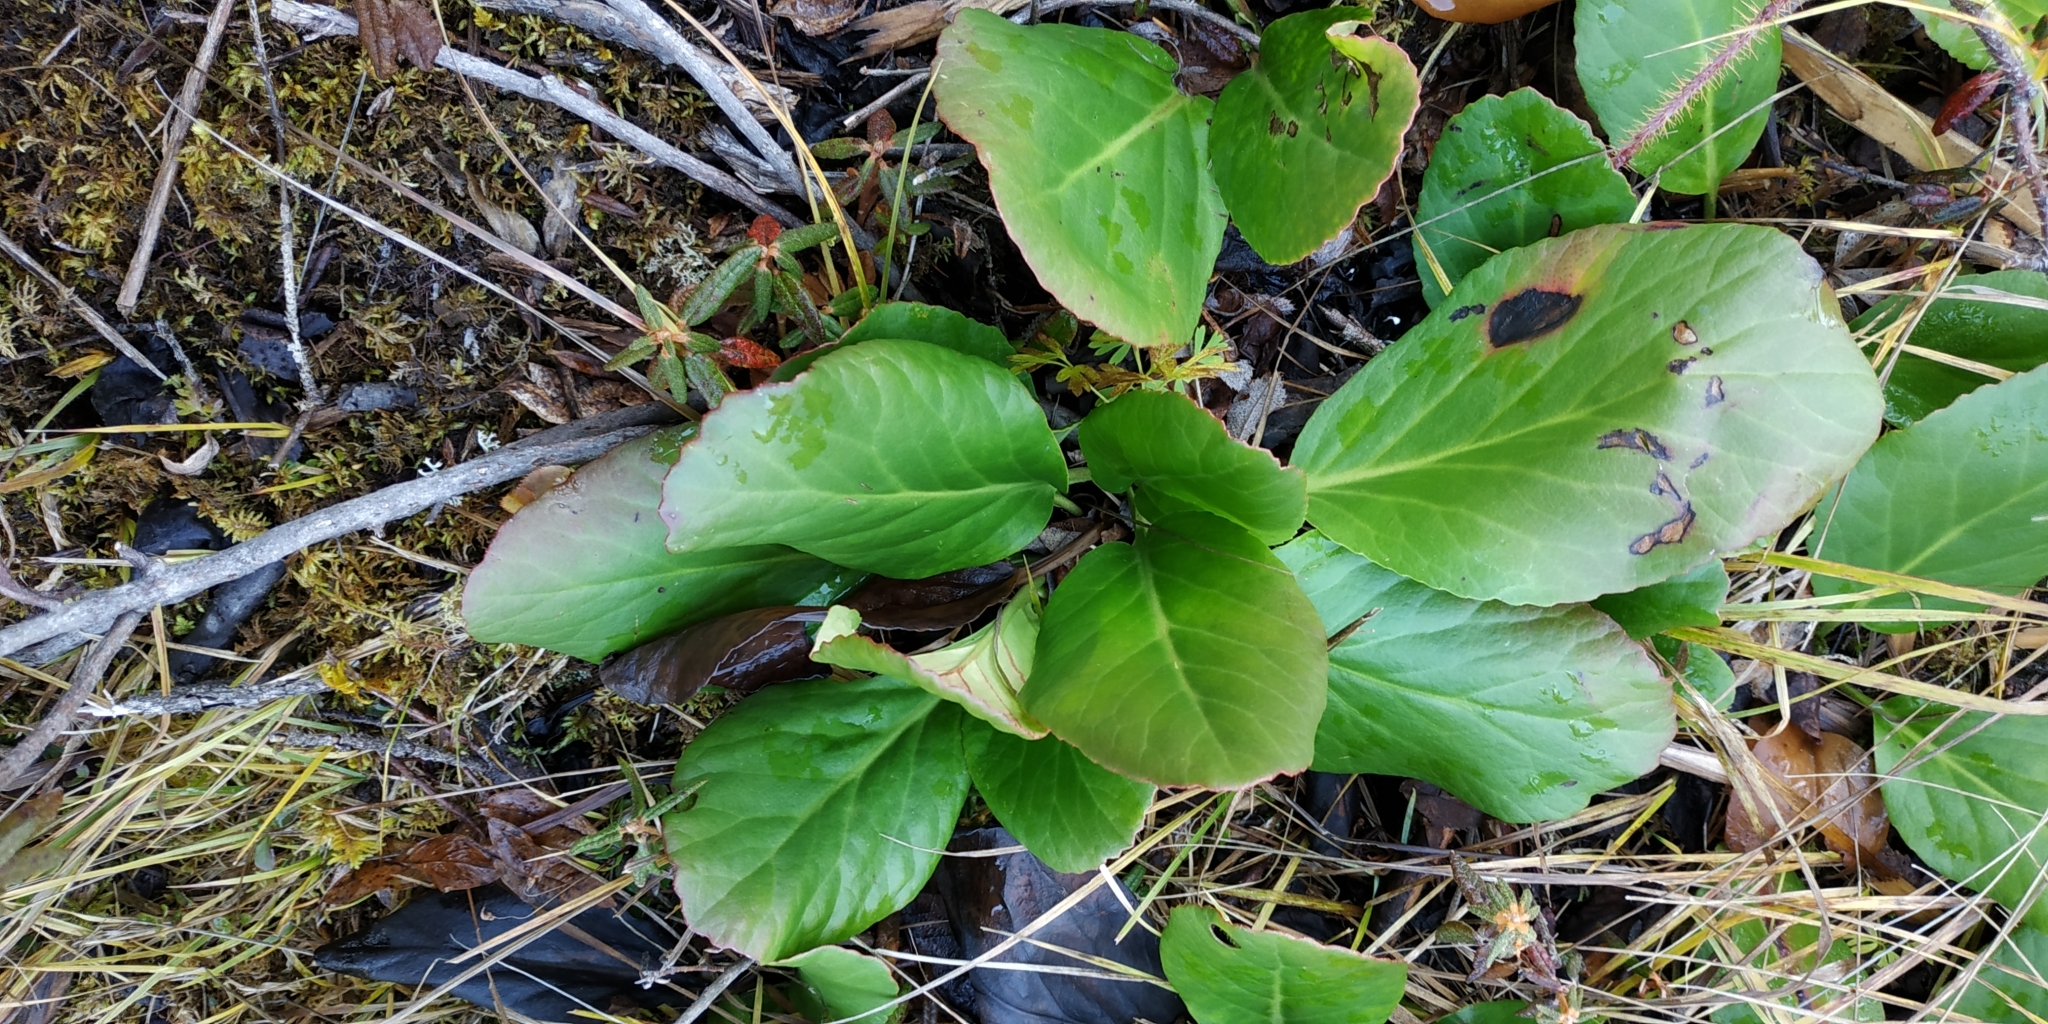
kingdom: Plantae
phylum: Tracheophyta
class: Magnoliopsida
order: Saxifragales
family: Saxifragaceae
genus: Bergenia
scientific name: Bergenia crassifolia
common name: Elephant-ears
